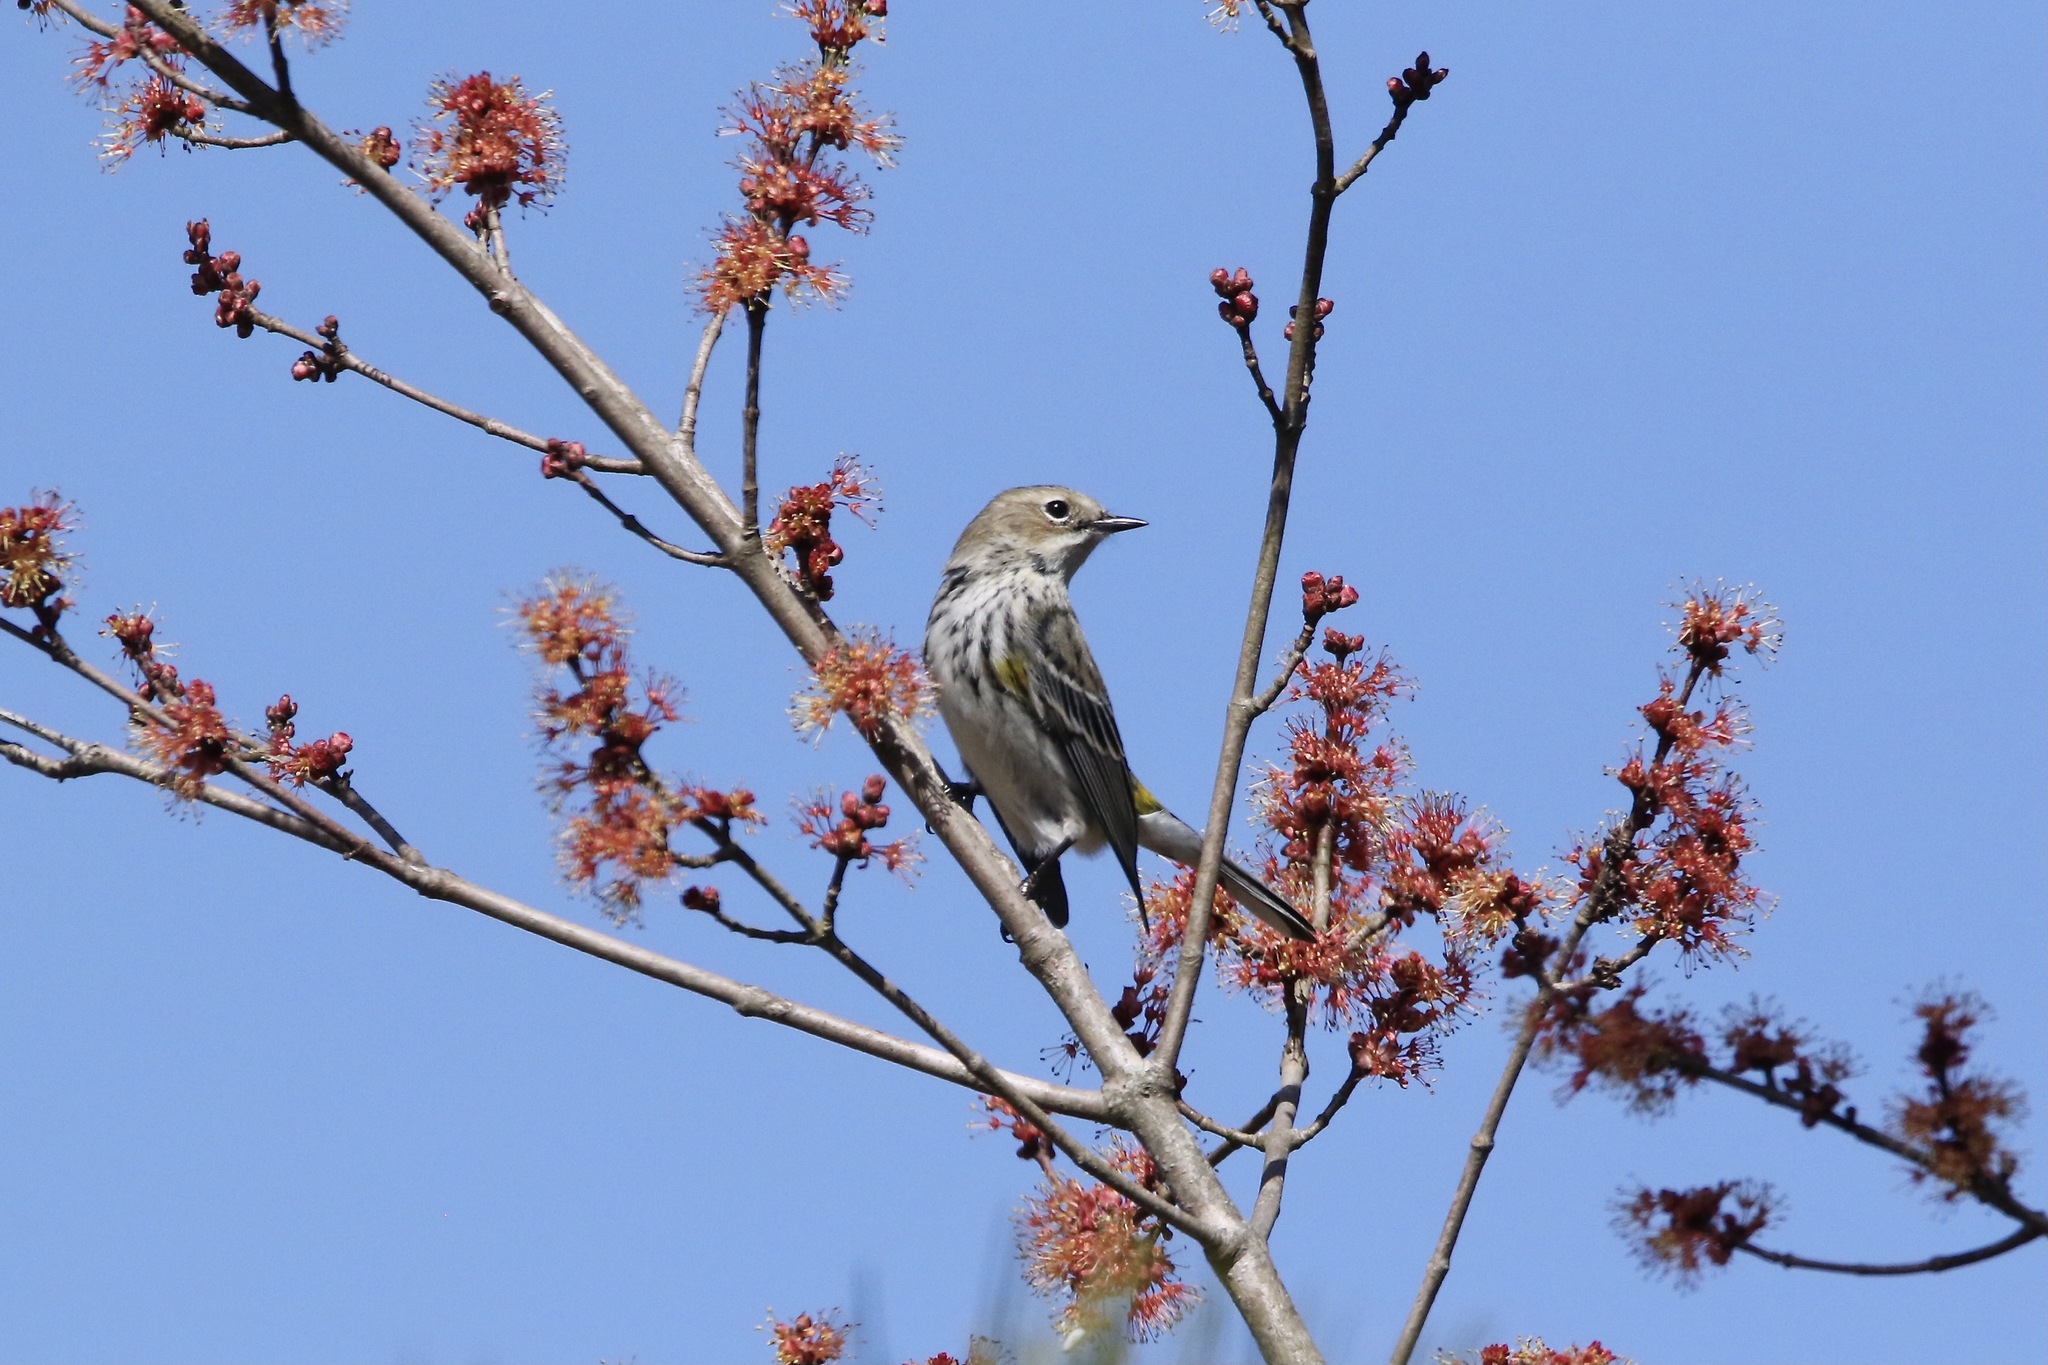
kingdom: Animalia
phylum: Chordata
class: Aves
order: Passeriformes
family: Parulidae
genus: Setophaga
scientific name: Setophaga coronata
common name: Myrtle warbler
